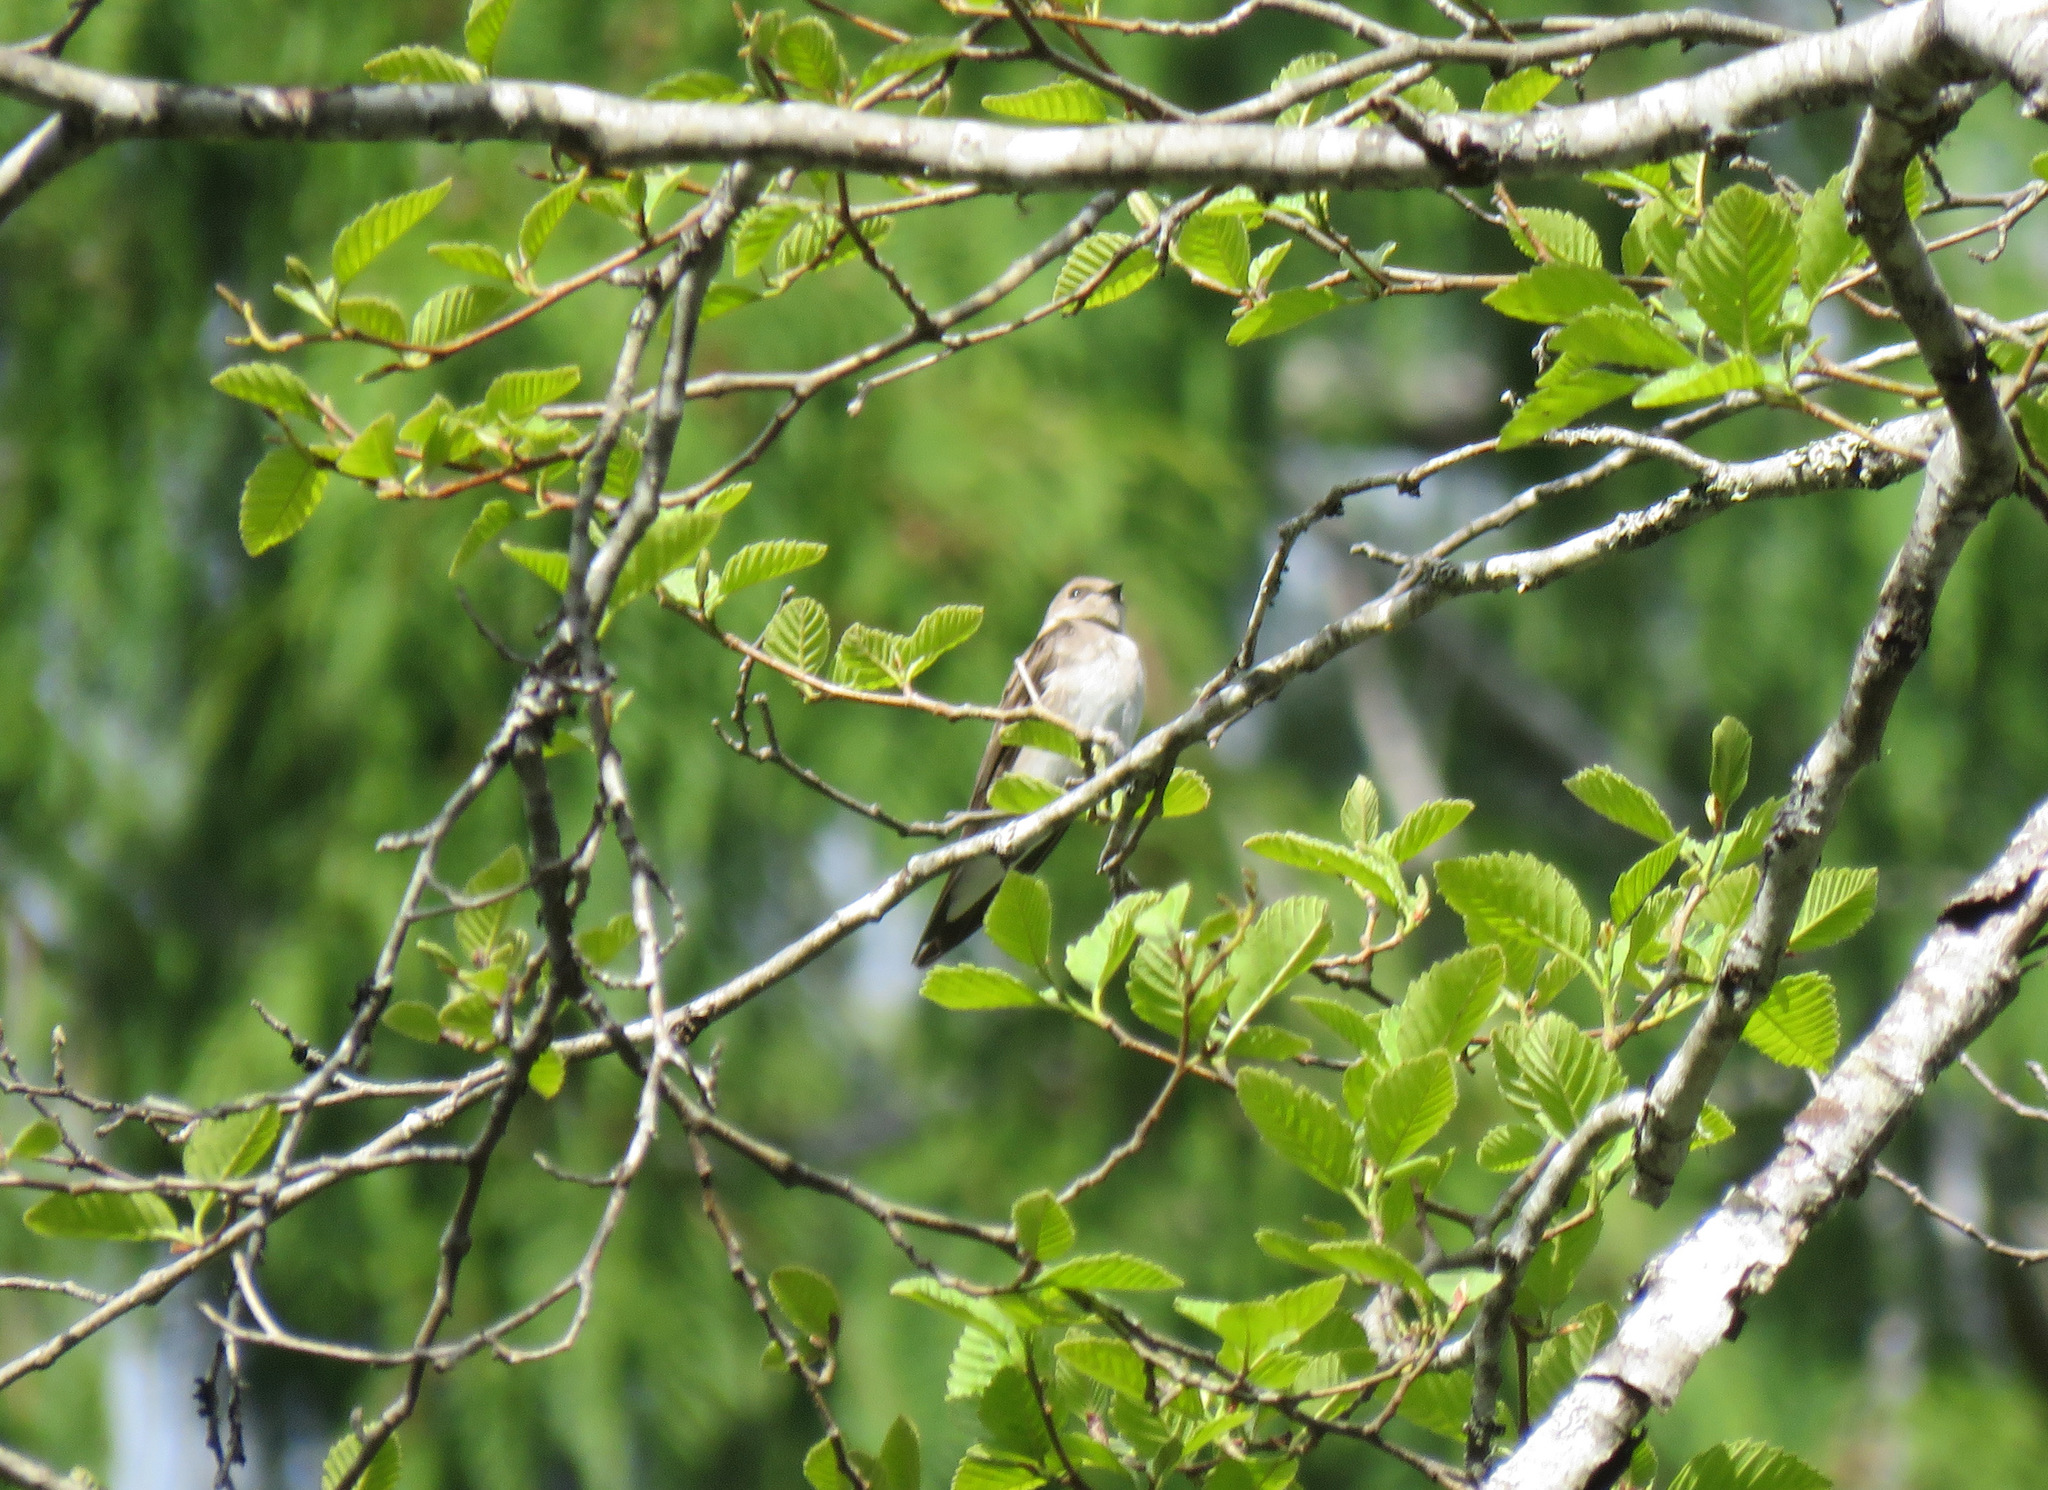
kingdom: Animalia
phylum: Chordata
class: Aves
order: Passeriformes
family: Hirundinidae
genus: Stelgidopteryx
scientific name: Stelgidopteryx serripennis
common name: Northern rough-winged swallow
